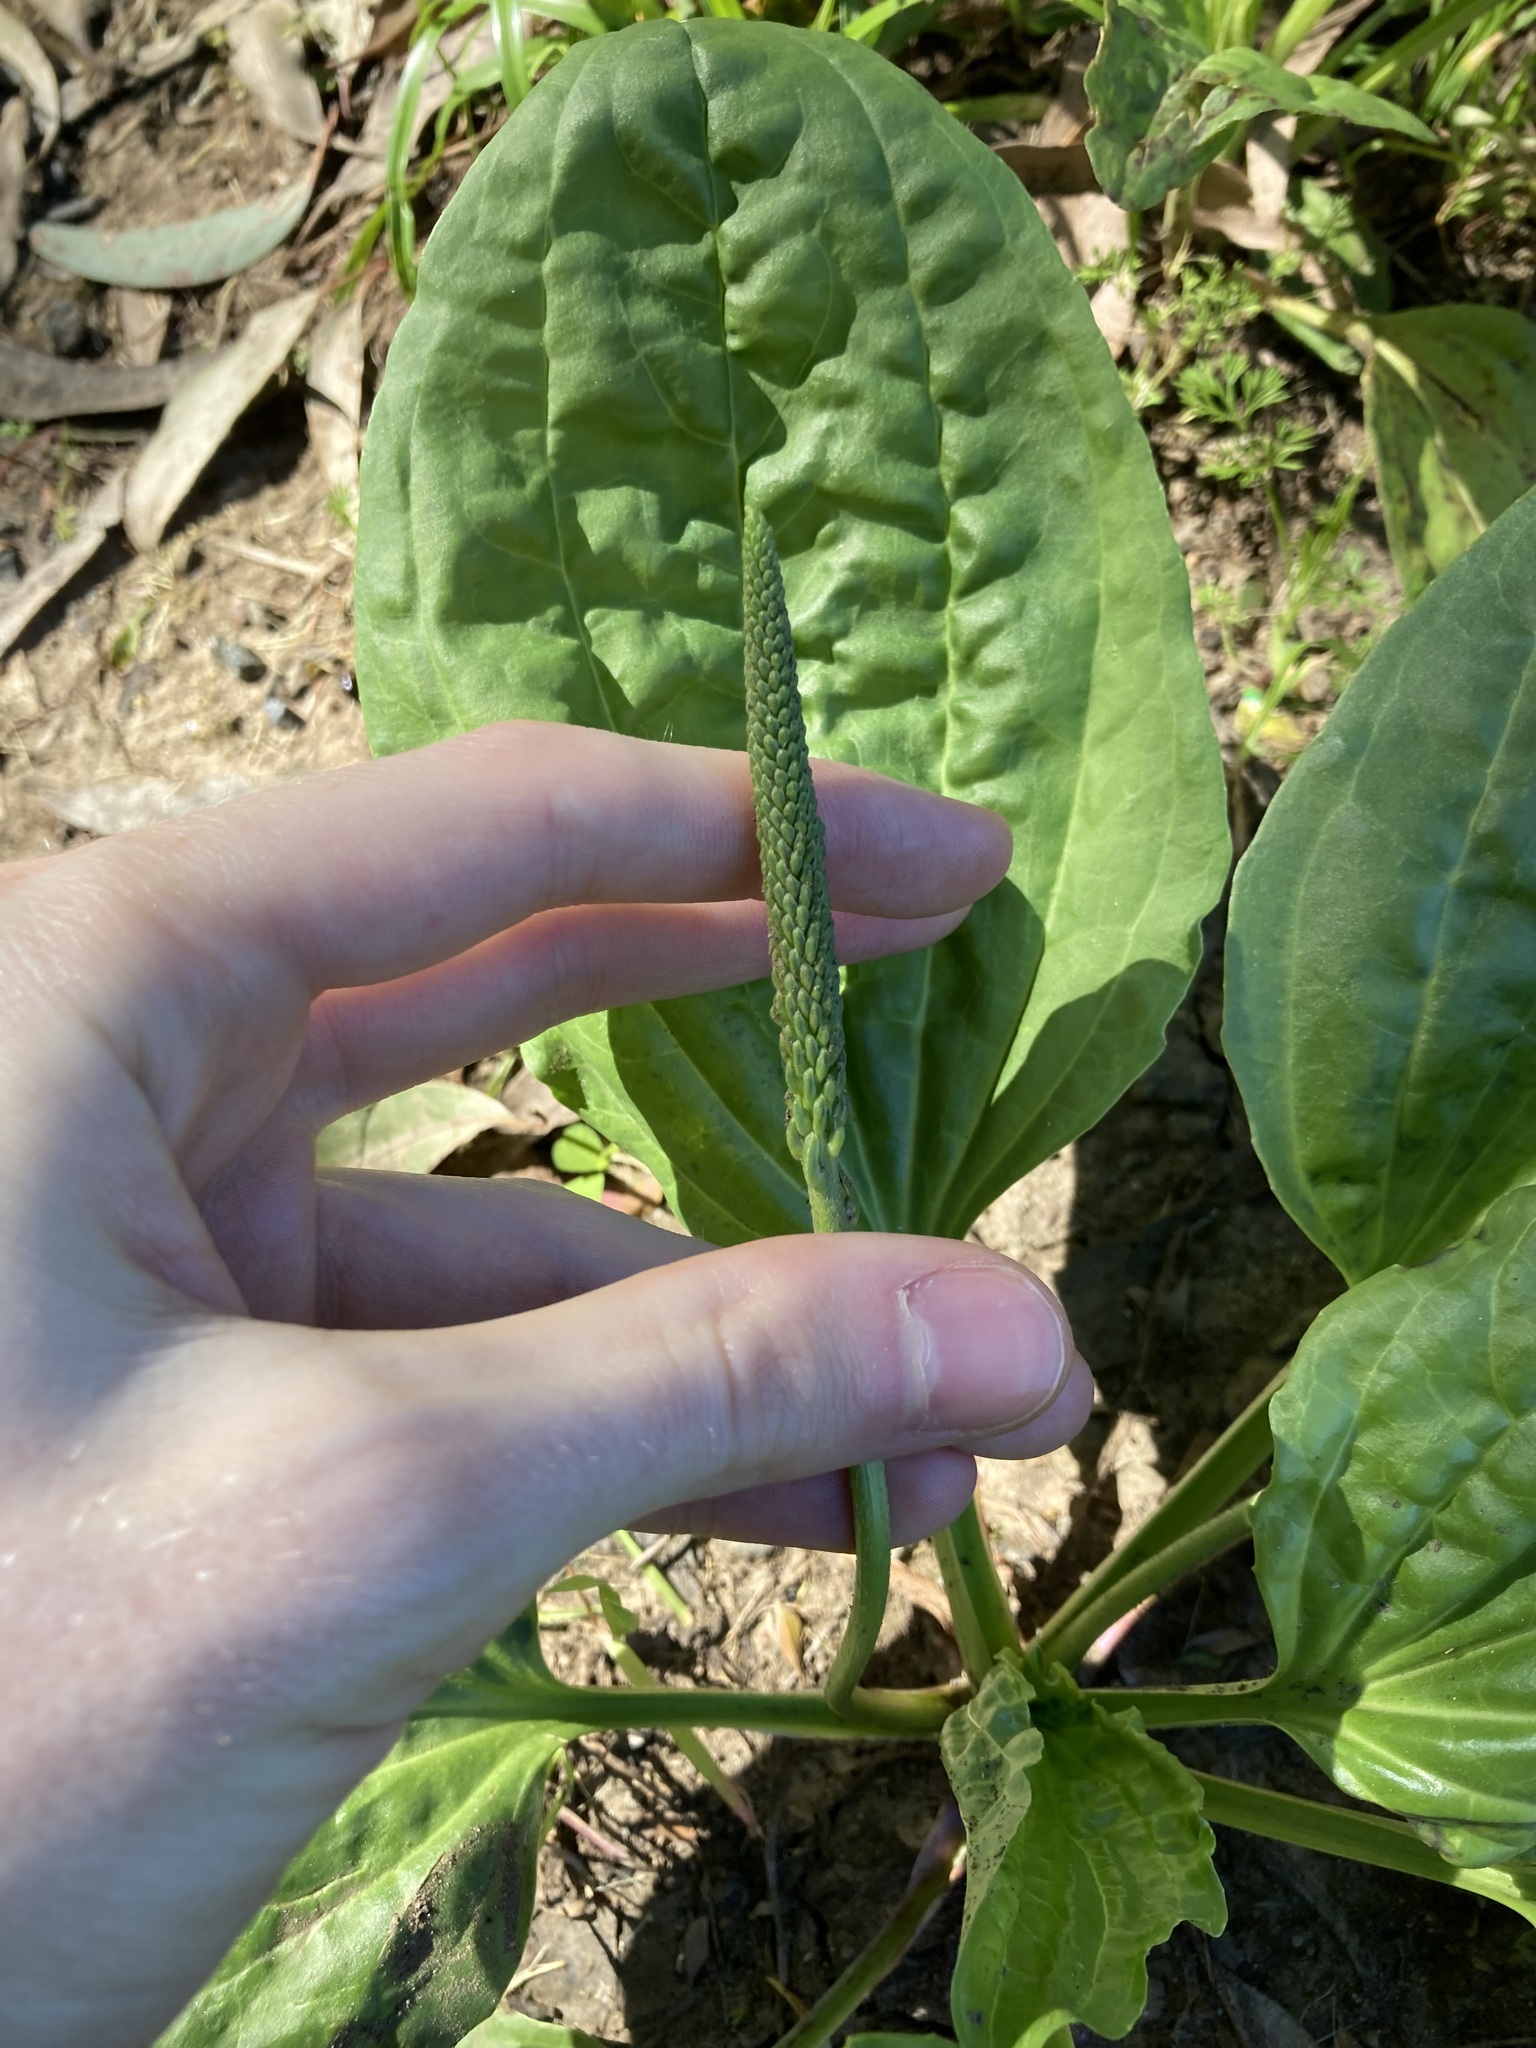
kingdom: Plantae
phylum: Tracheophyta
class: Magnoliopsida
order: Lamiales
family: Plantaginaceae
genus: Plantago
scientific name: Plantago major
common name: Common plantain
